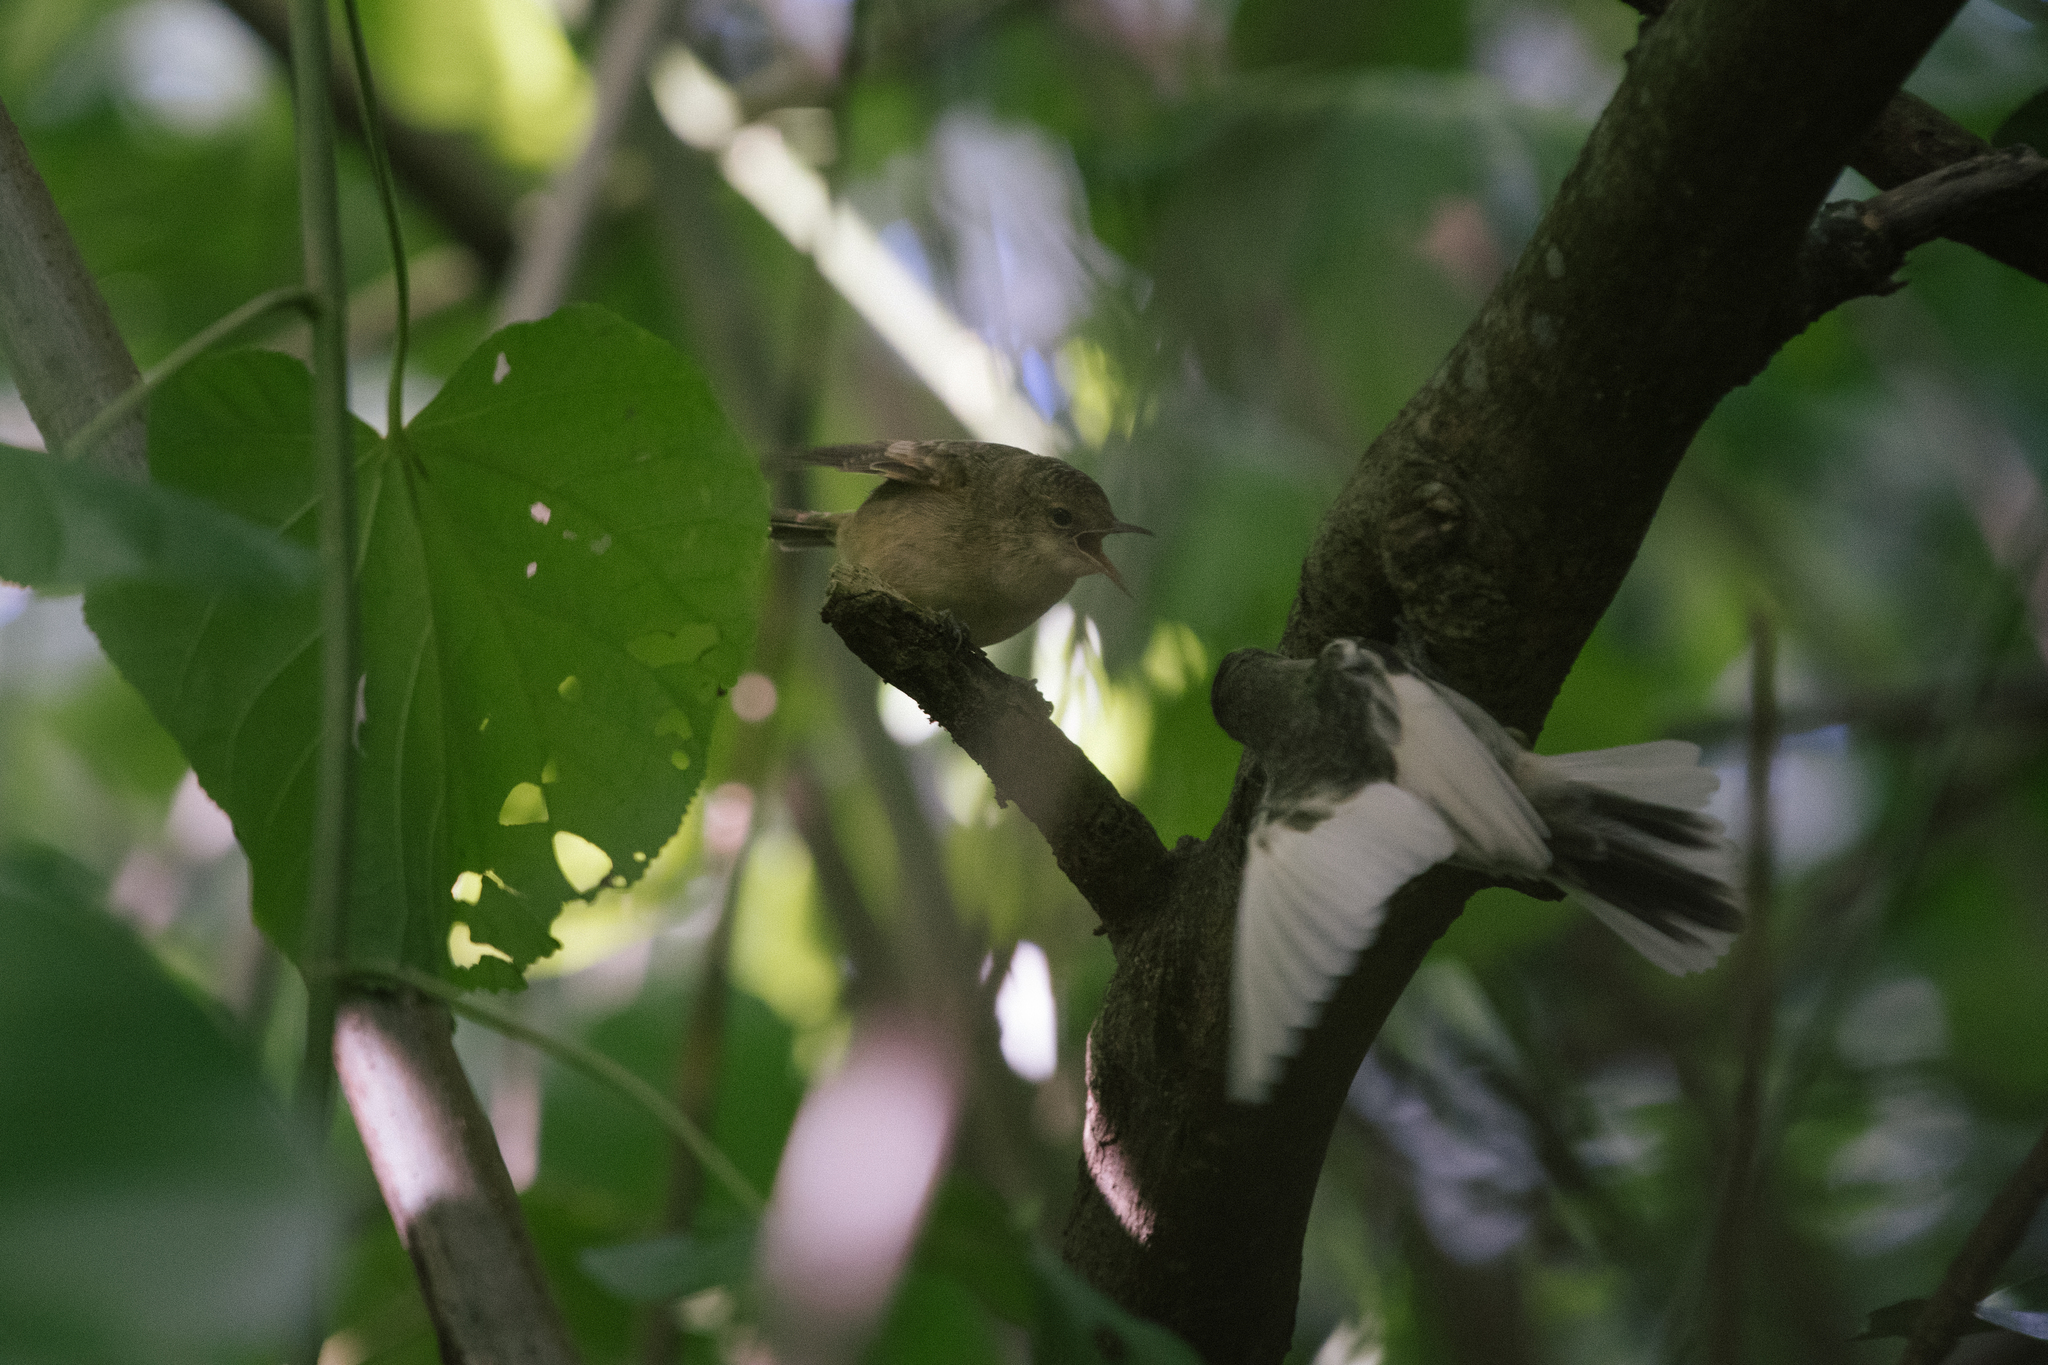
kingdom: Animalia
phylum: Chordata
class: Aves
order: Passeriformes
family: Acrocephalidae
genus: Acrocephalus
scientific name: Acrocephalus vaughani
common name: Pitcairn reed warbler
